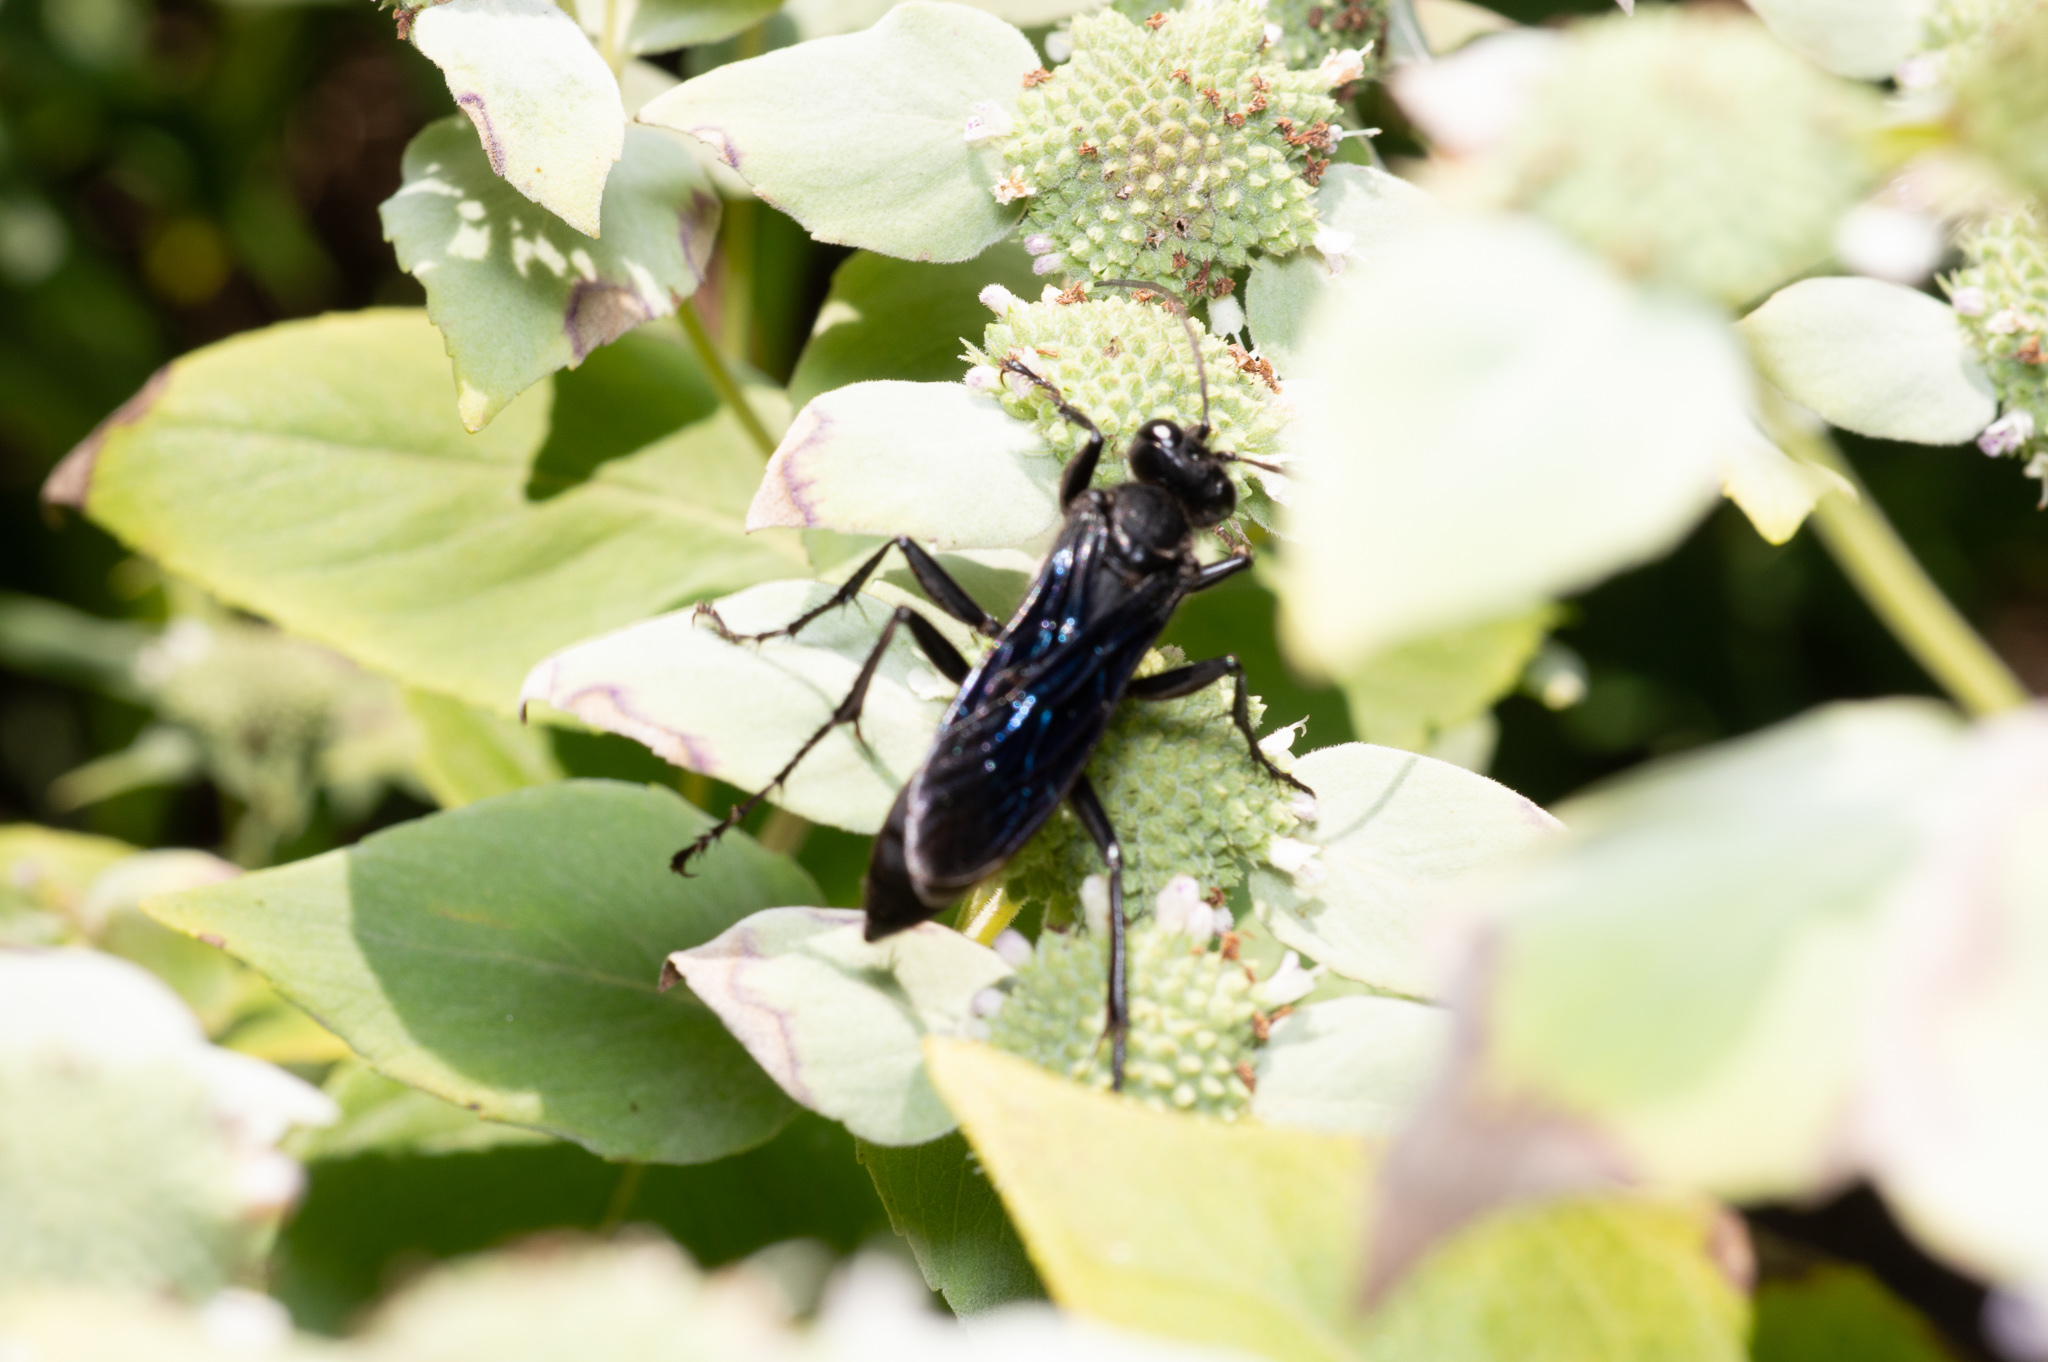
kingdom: Animalia
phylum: Arthropoda
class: Insecta
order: Hymenoptera
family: Sphecidae
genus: Sphex
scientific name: Sphex pensylvanicus
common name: Great black digger wasp
